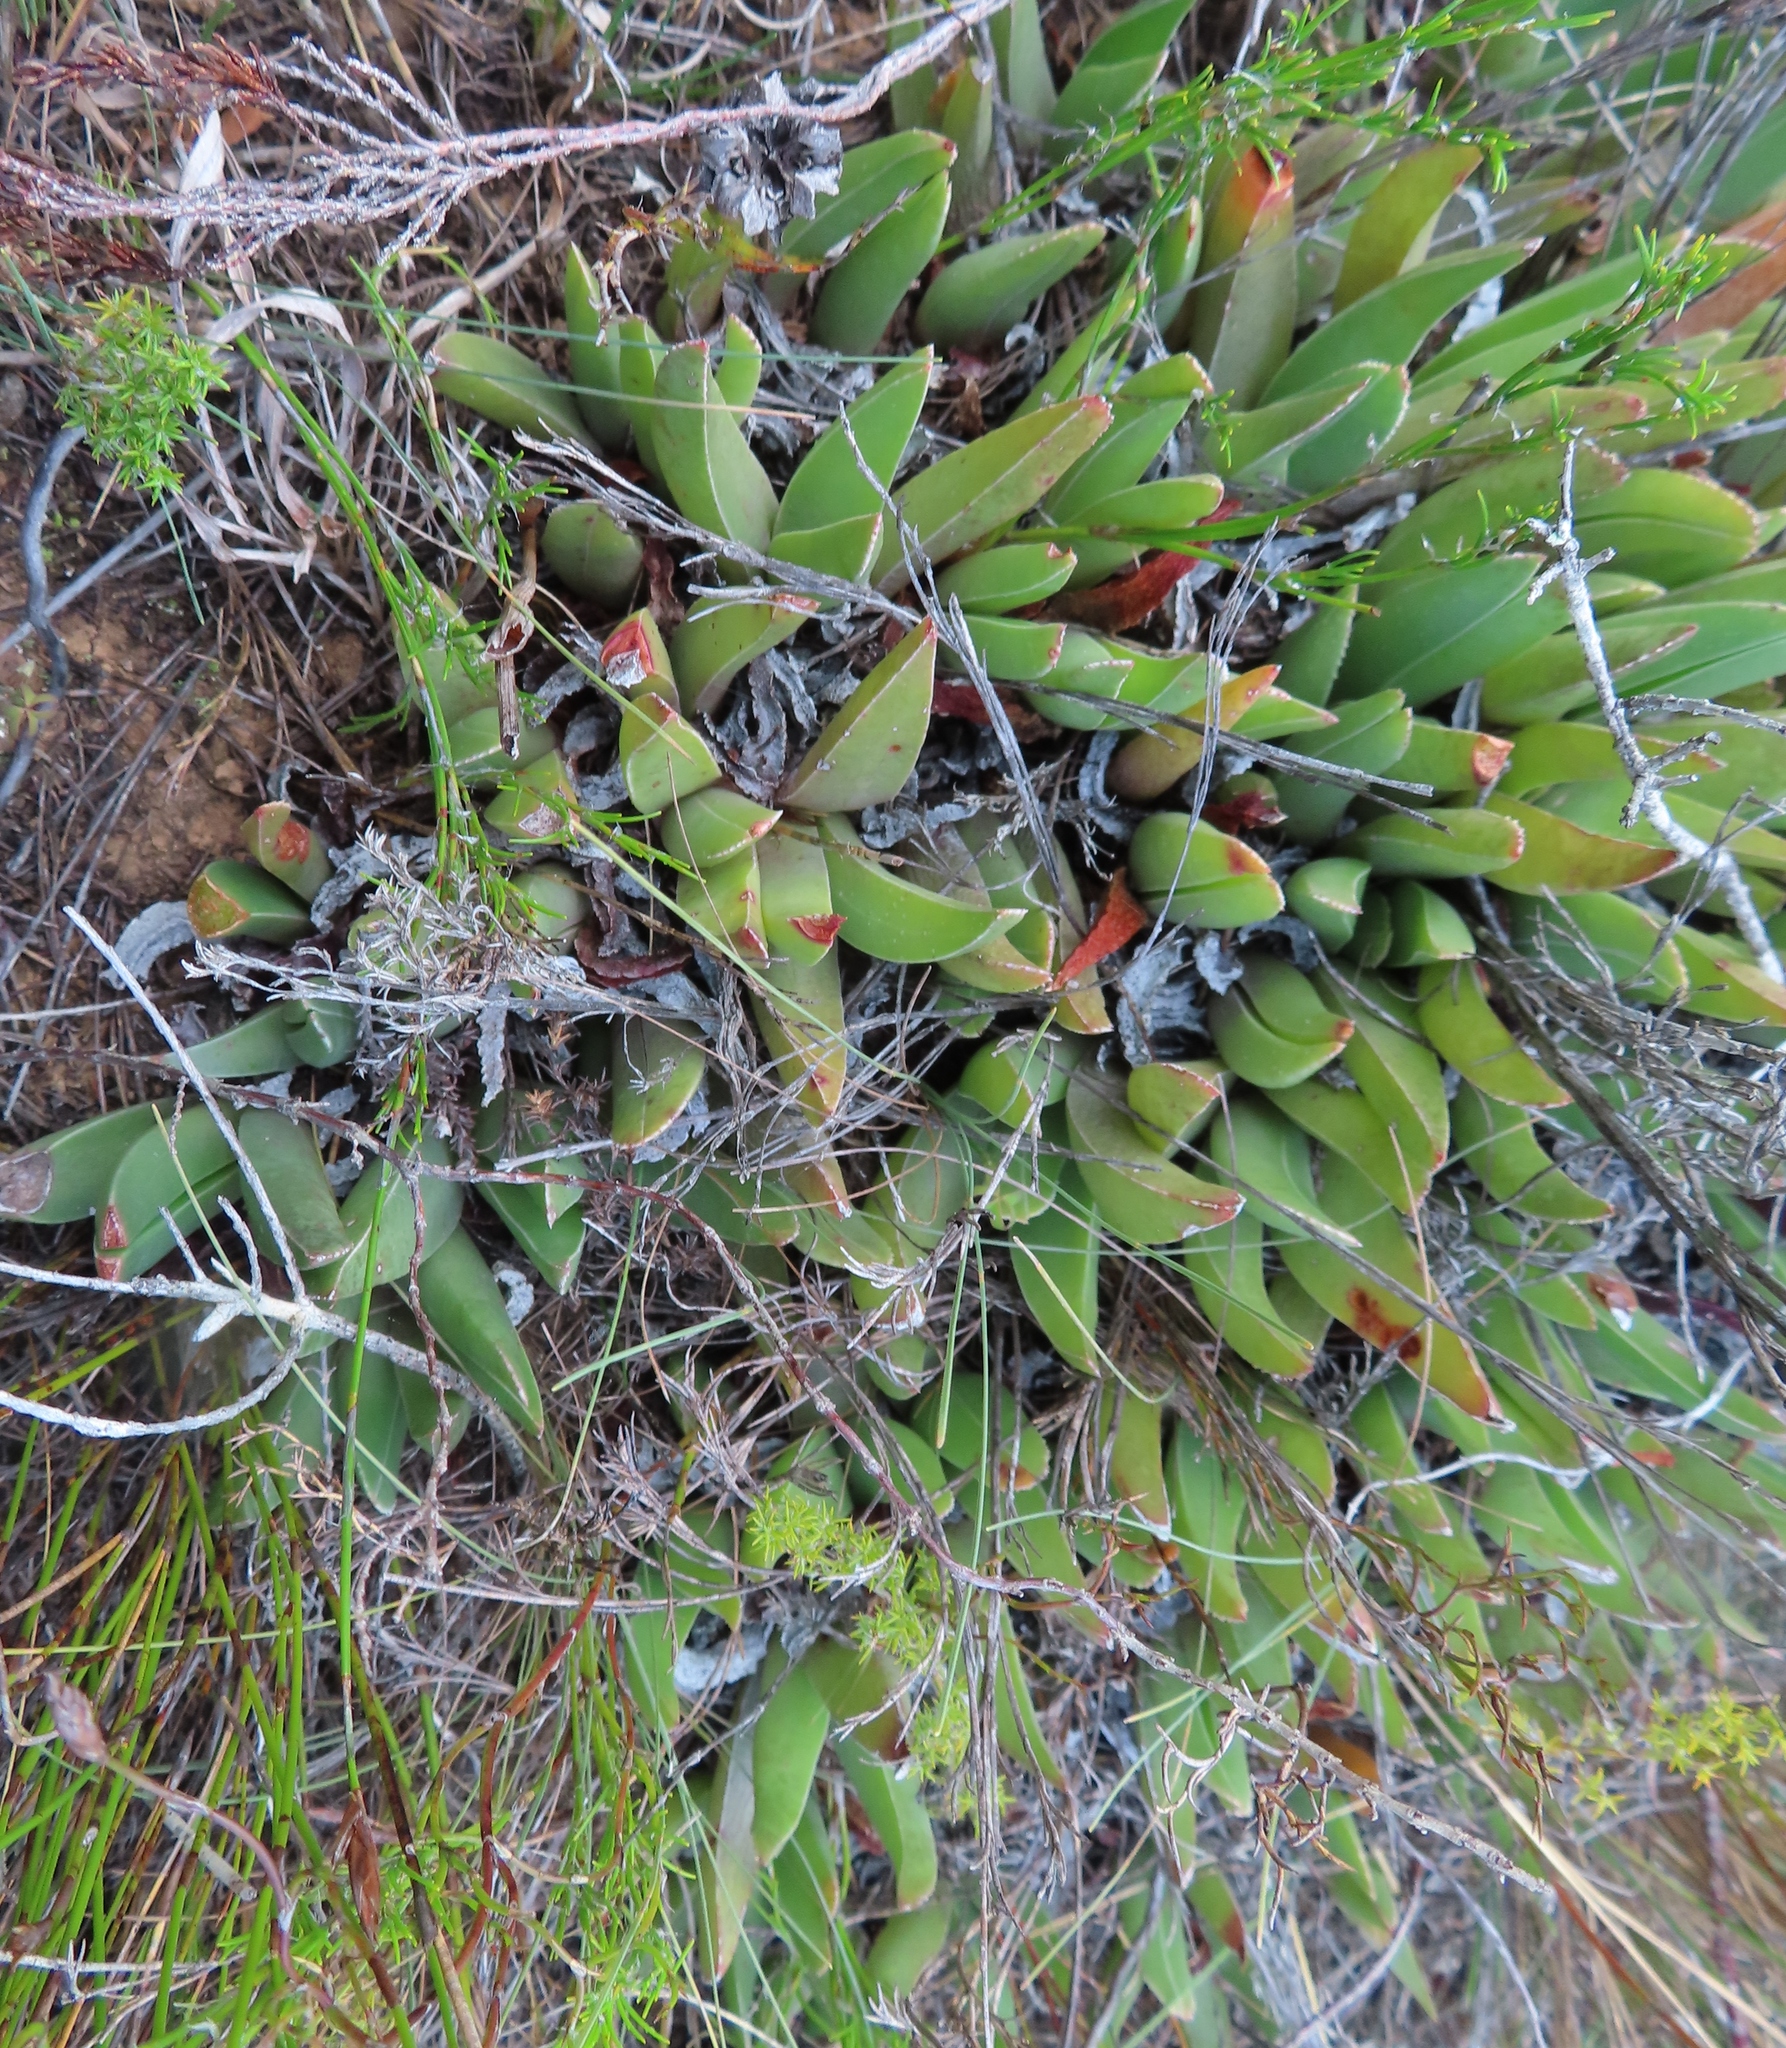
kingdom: Plantae
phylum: Tracheophyta
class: Magnoliopsida
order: Caryophyllales
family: Aizoaceae
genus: Acrodon
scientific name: Acrodon subulatus
